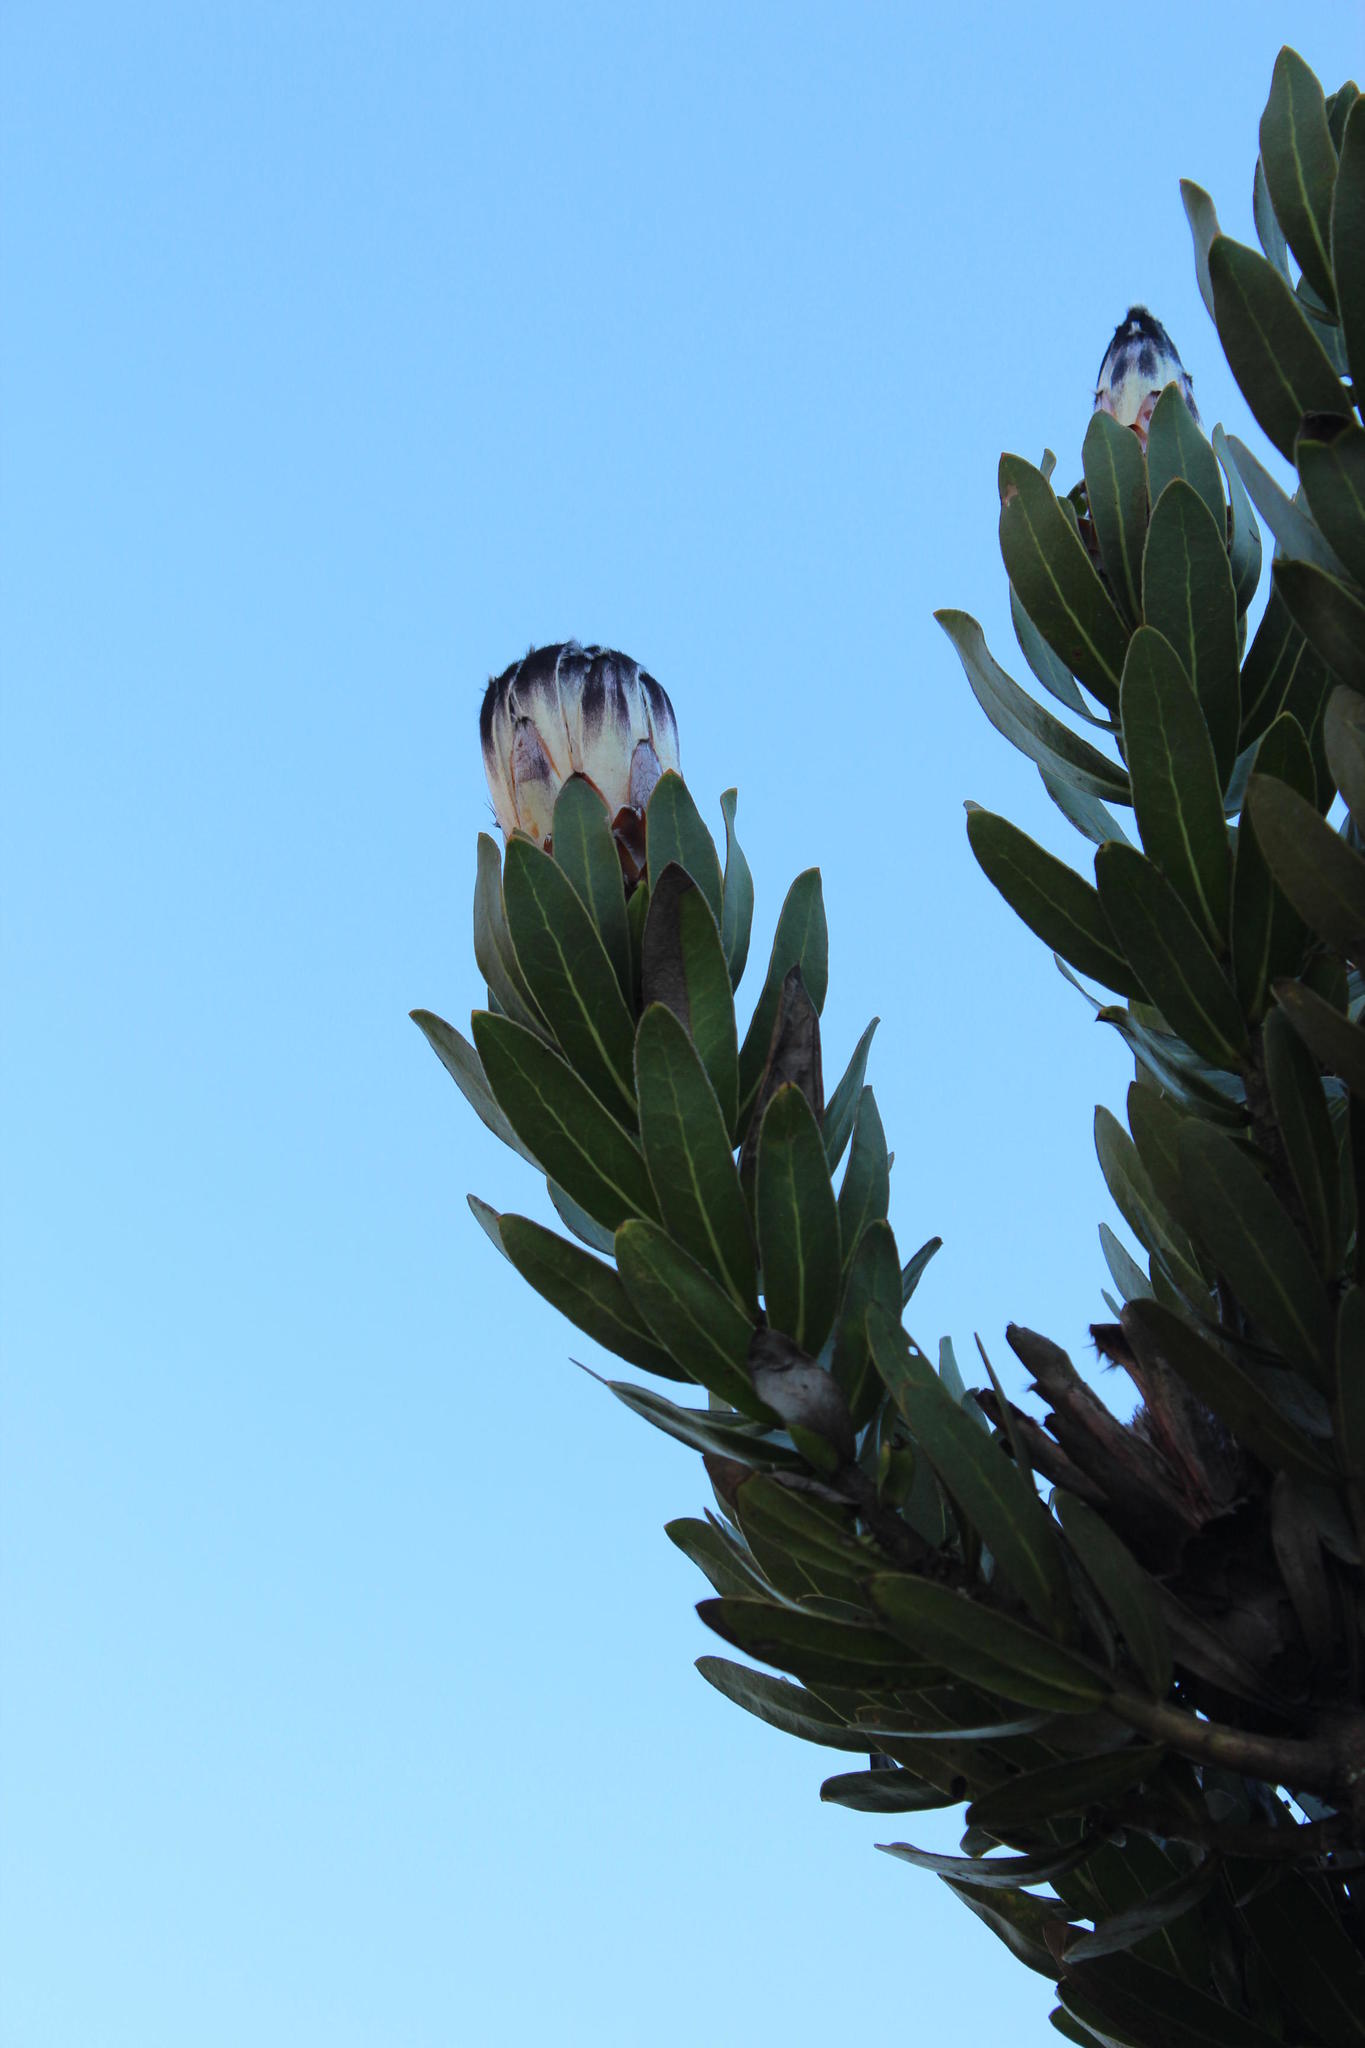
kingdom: Plantae
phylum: Tracheophyta
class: Magnoliopsida
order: Proteales
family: Proteaceae
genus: Protea
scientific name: Protea lepidocarpodendron
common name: Black-bearded protea
